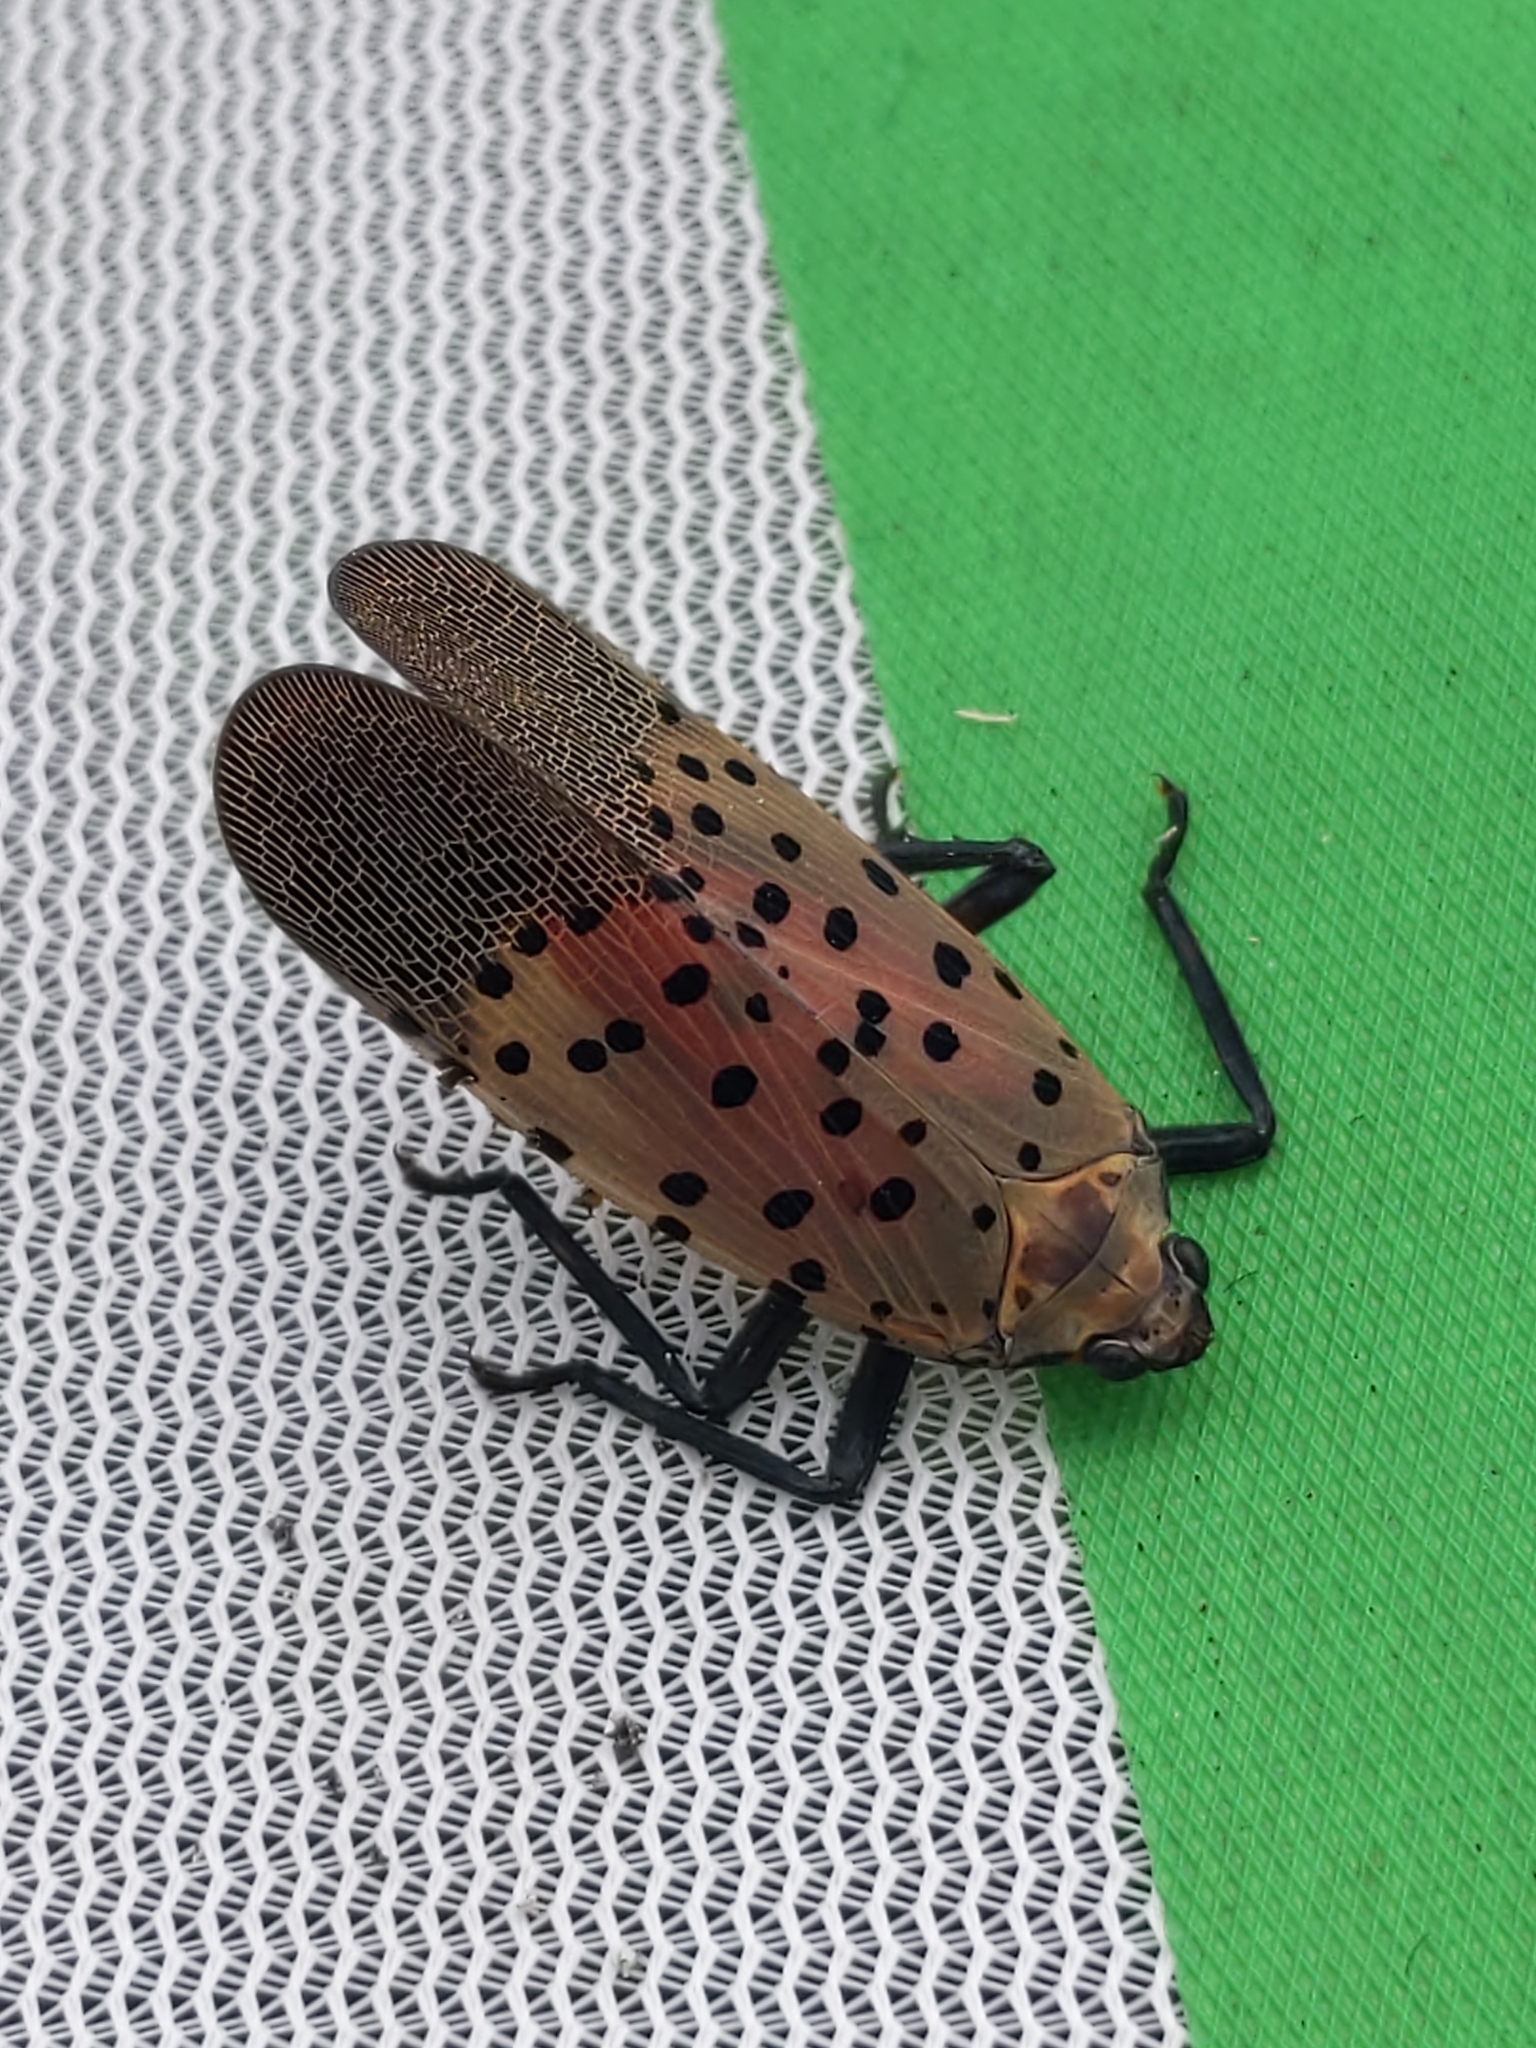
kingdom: Animalia
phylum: Arthropoda
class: Insecta
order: Hemiptera
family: Fulgoridae
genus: Lycorma
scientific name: Lycorma delicatula
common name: Spotted lanternfly
